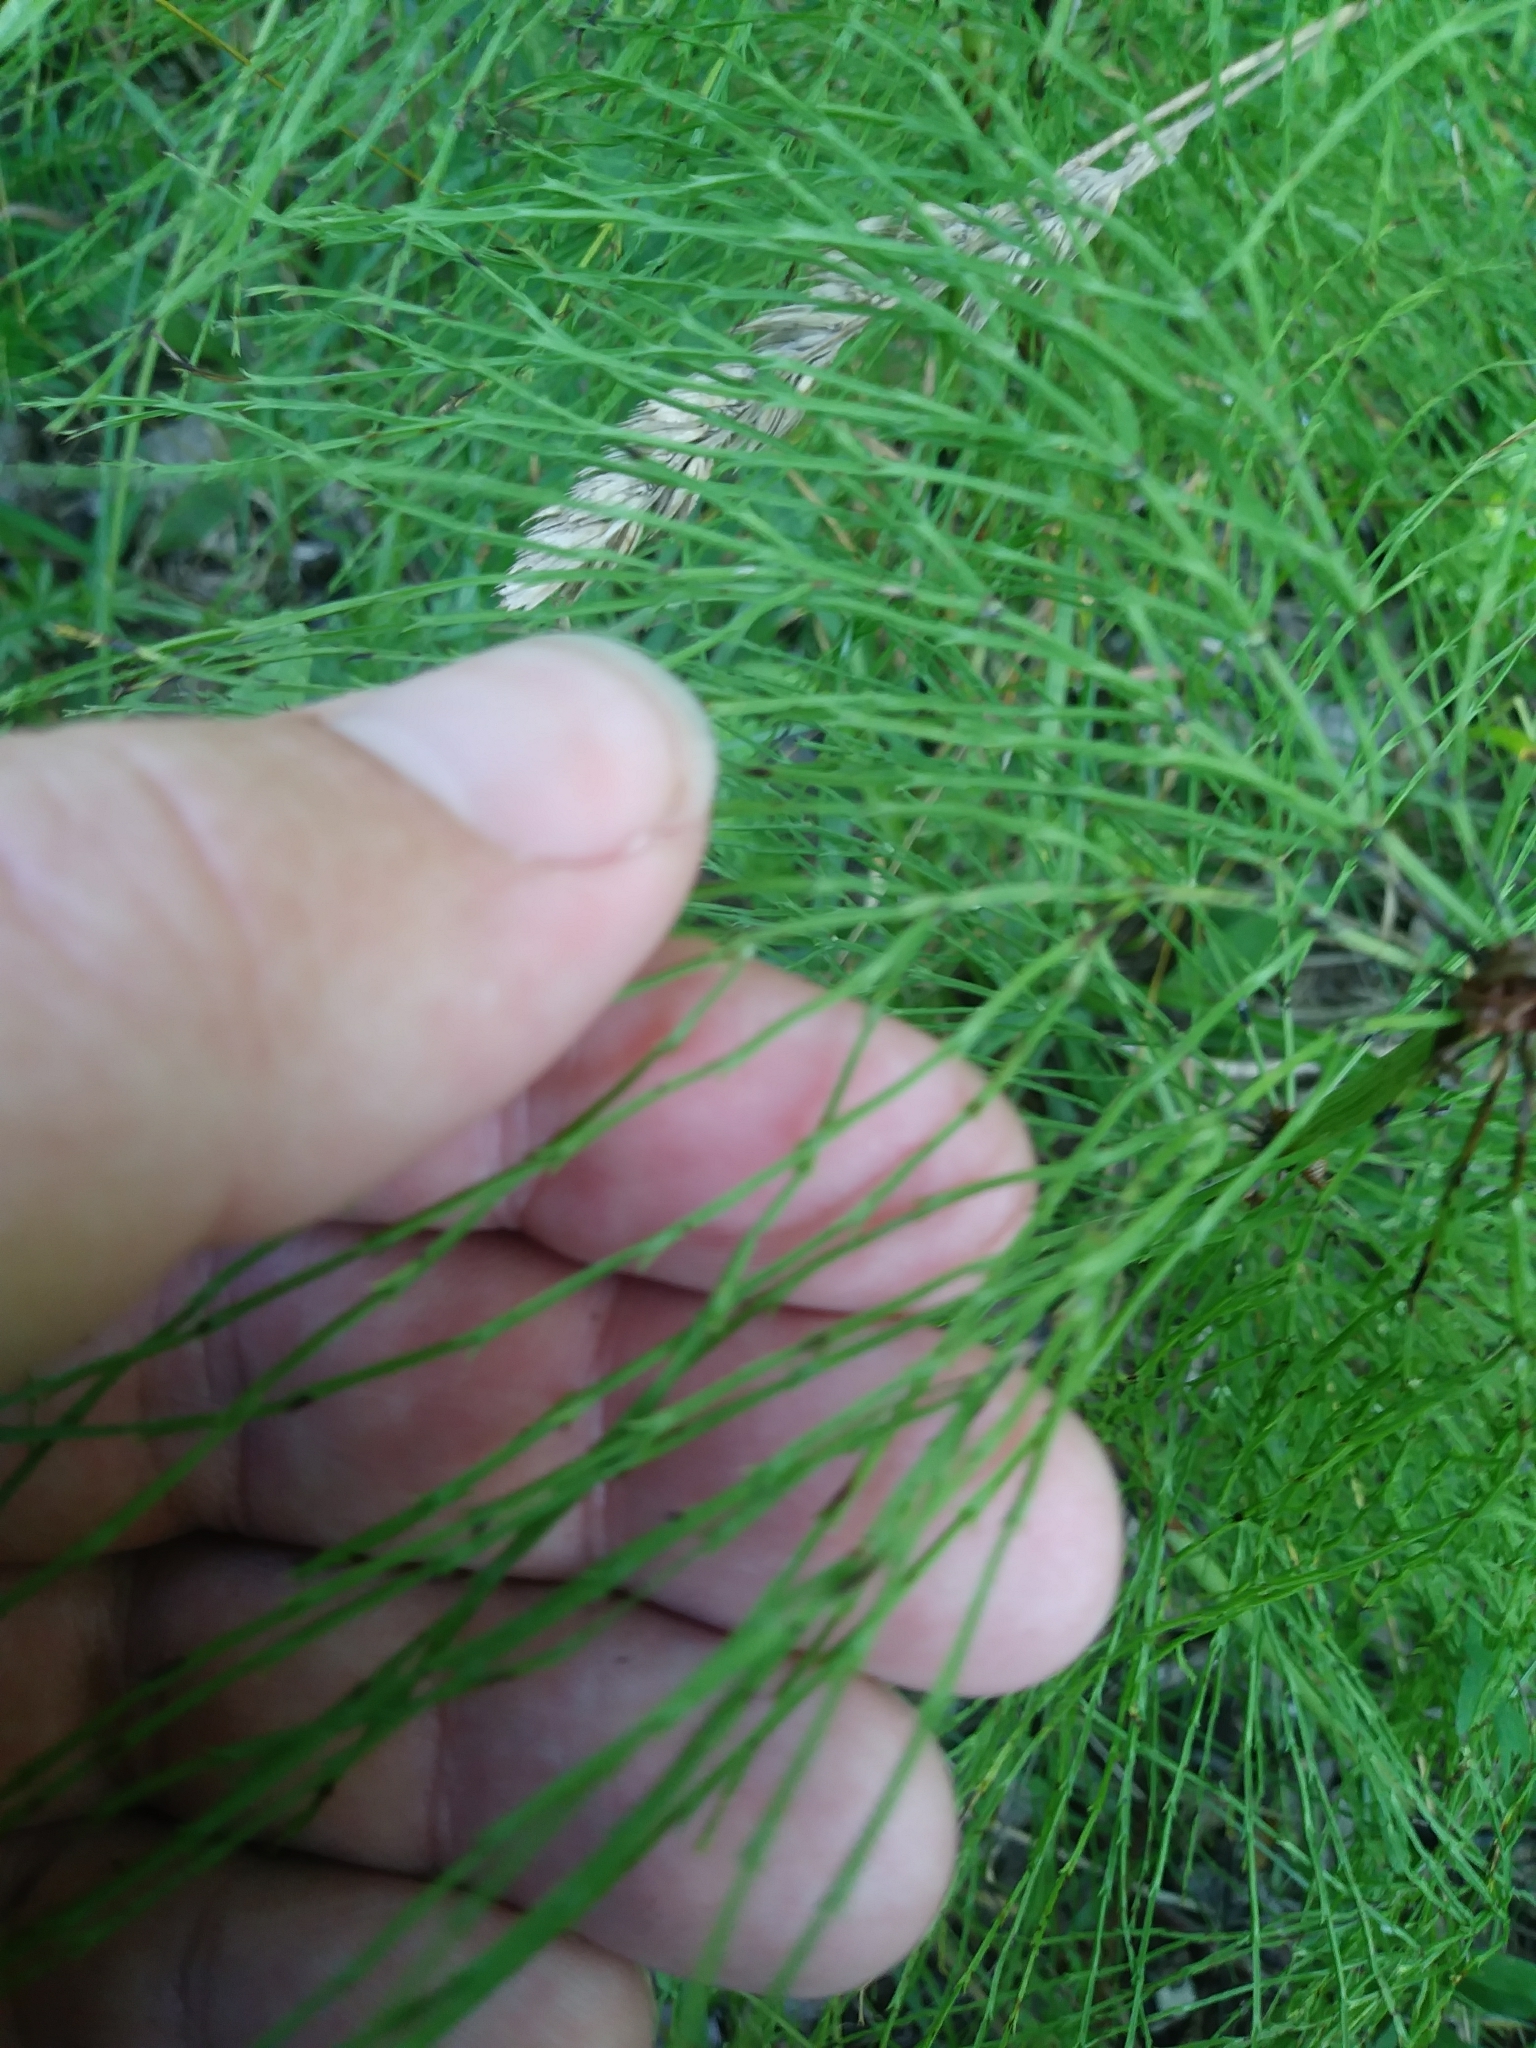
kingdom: Plantae
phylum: Tracheophyta
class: Polypodiopsida
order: Equisetales
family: Equisetaceae
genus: Equisetum
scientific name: Equisetum sylvaticum
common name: Wood horsetail
